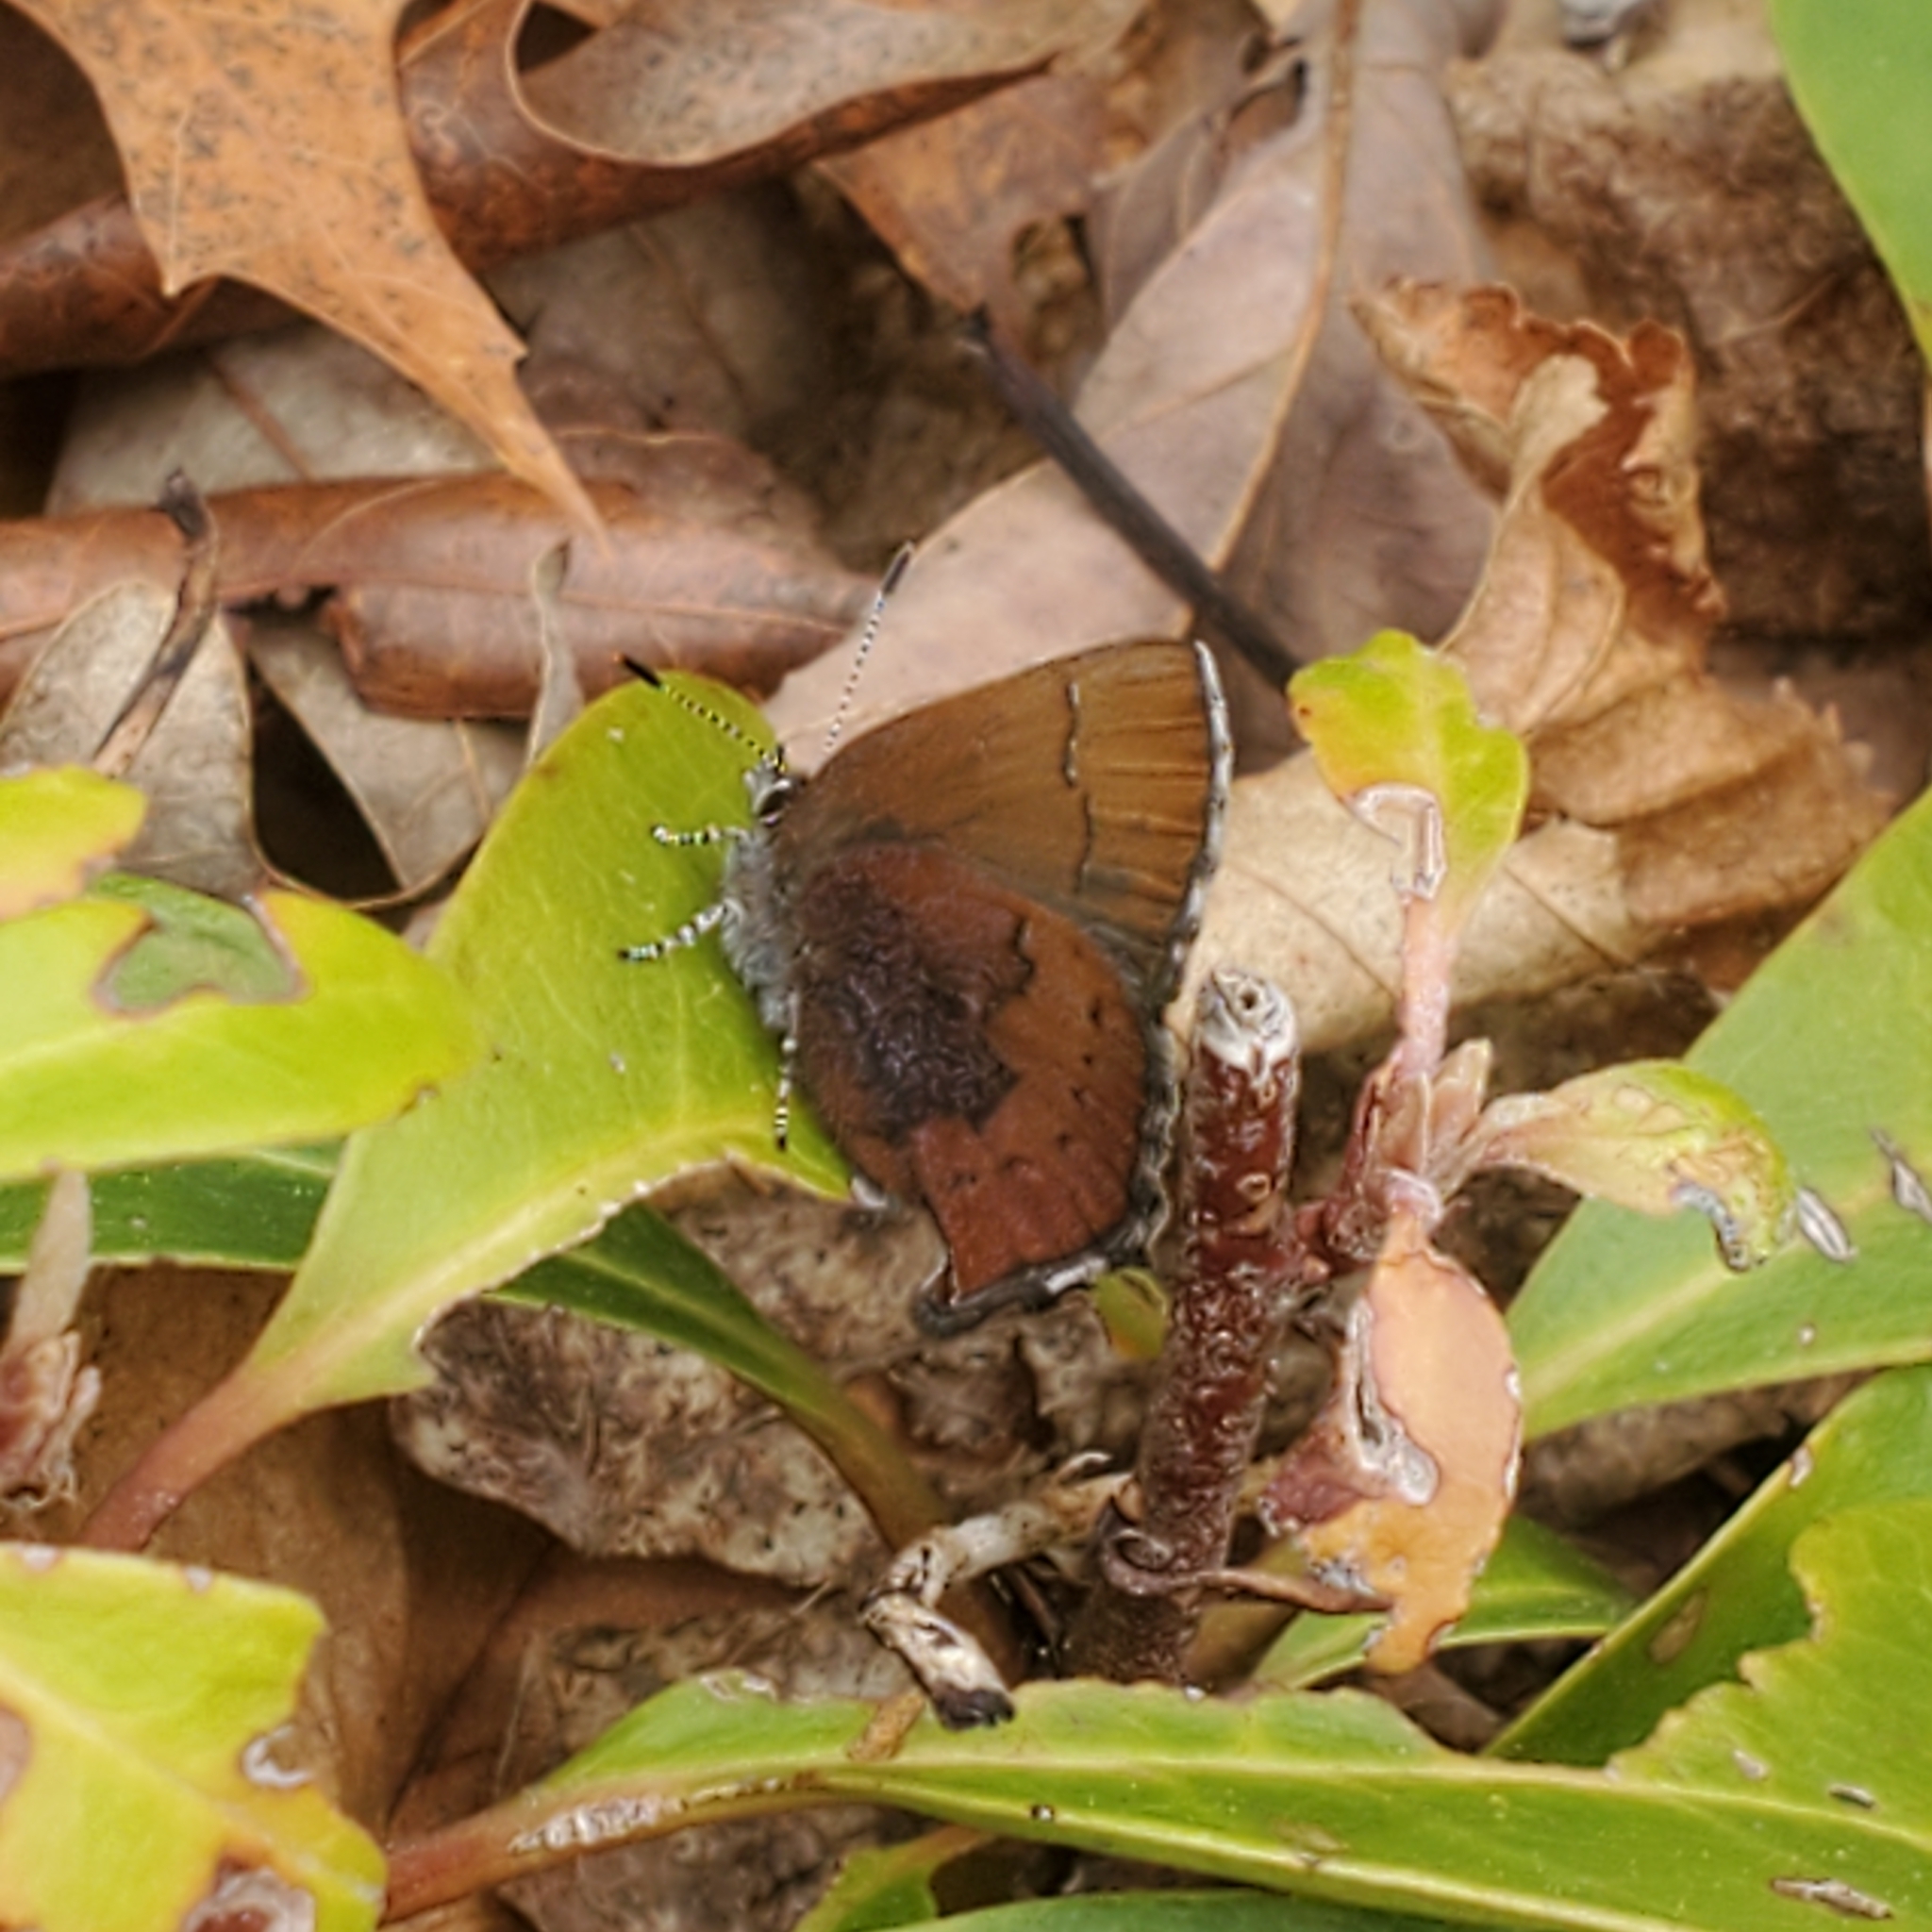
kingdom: Animalia
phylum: Arthropoda
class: Insecta
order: Lepidoptera
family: Lycaenidae
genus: Incisalia
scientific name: Incisalia irioides
